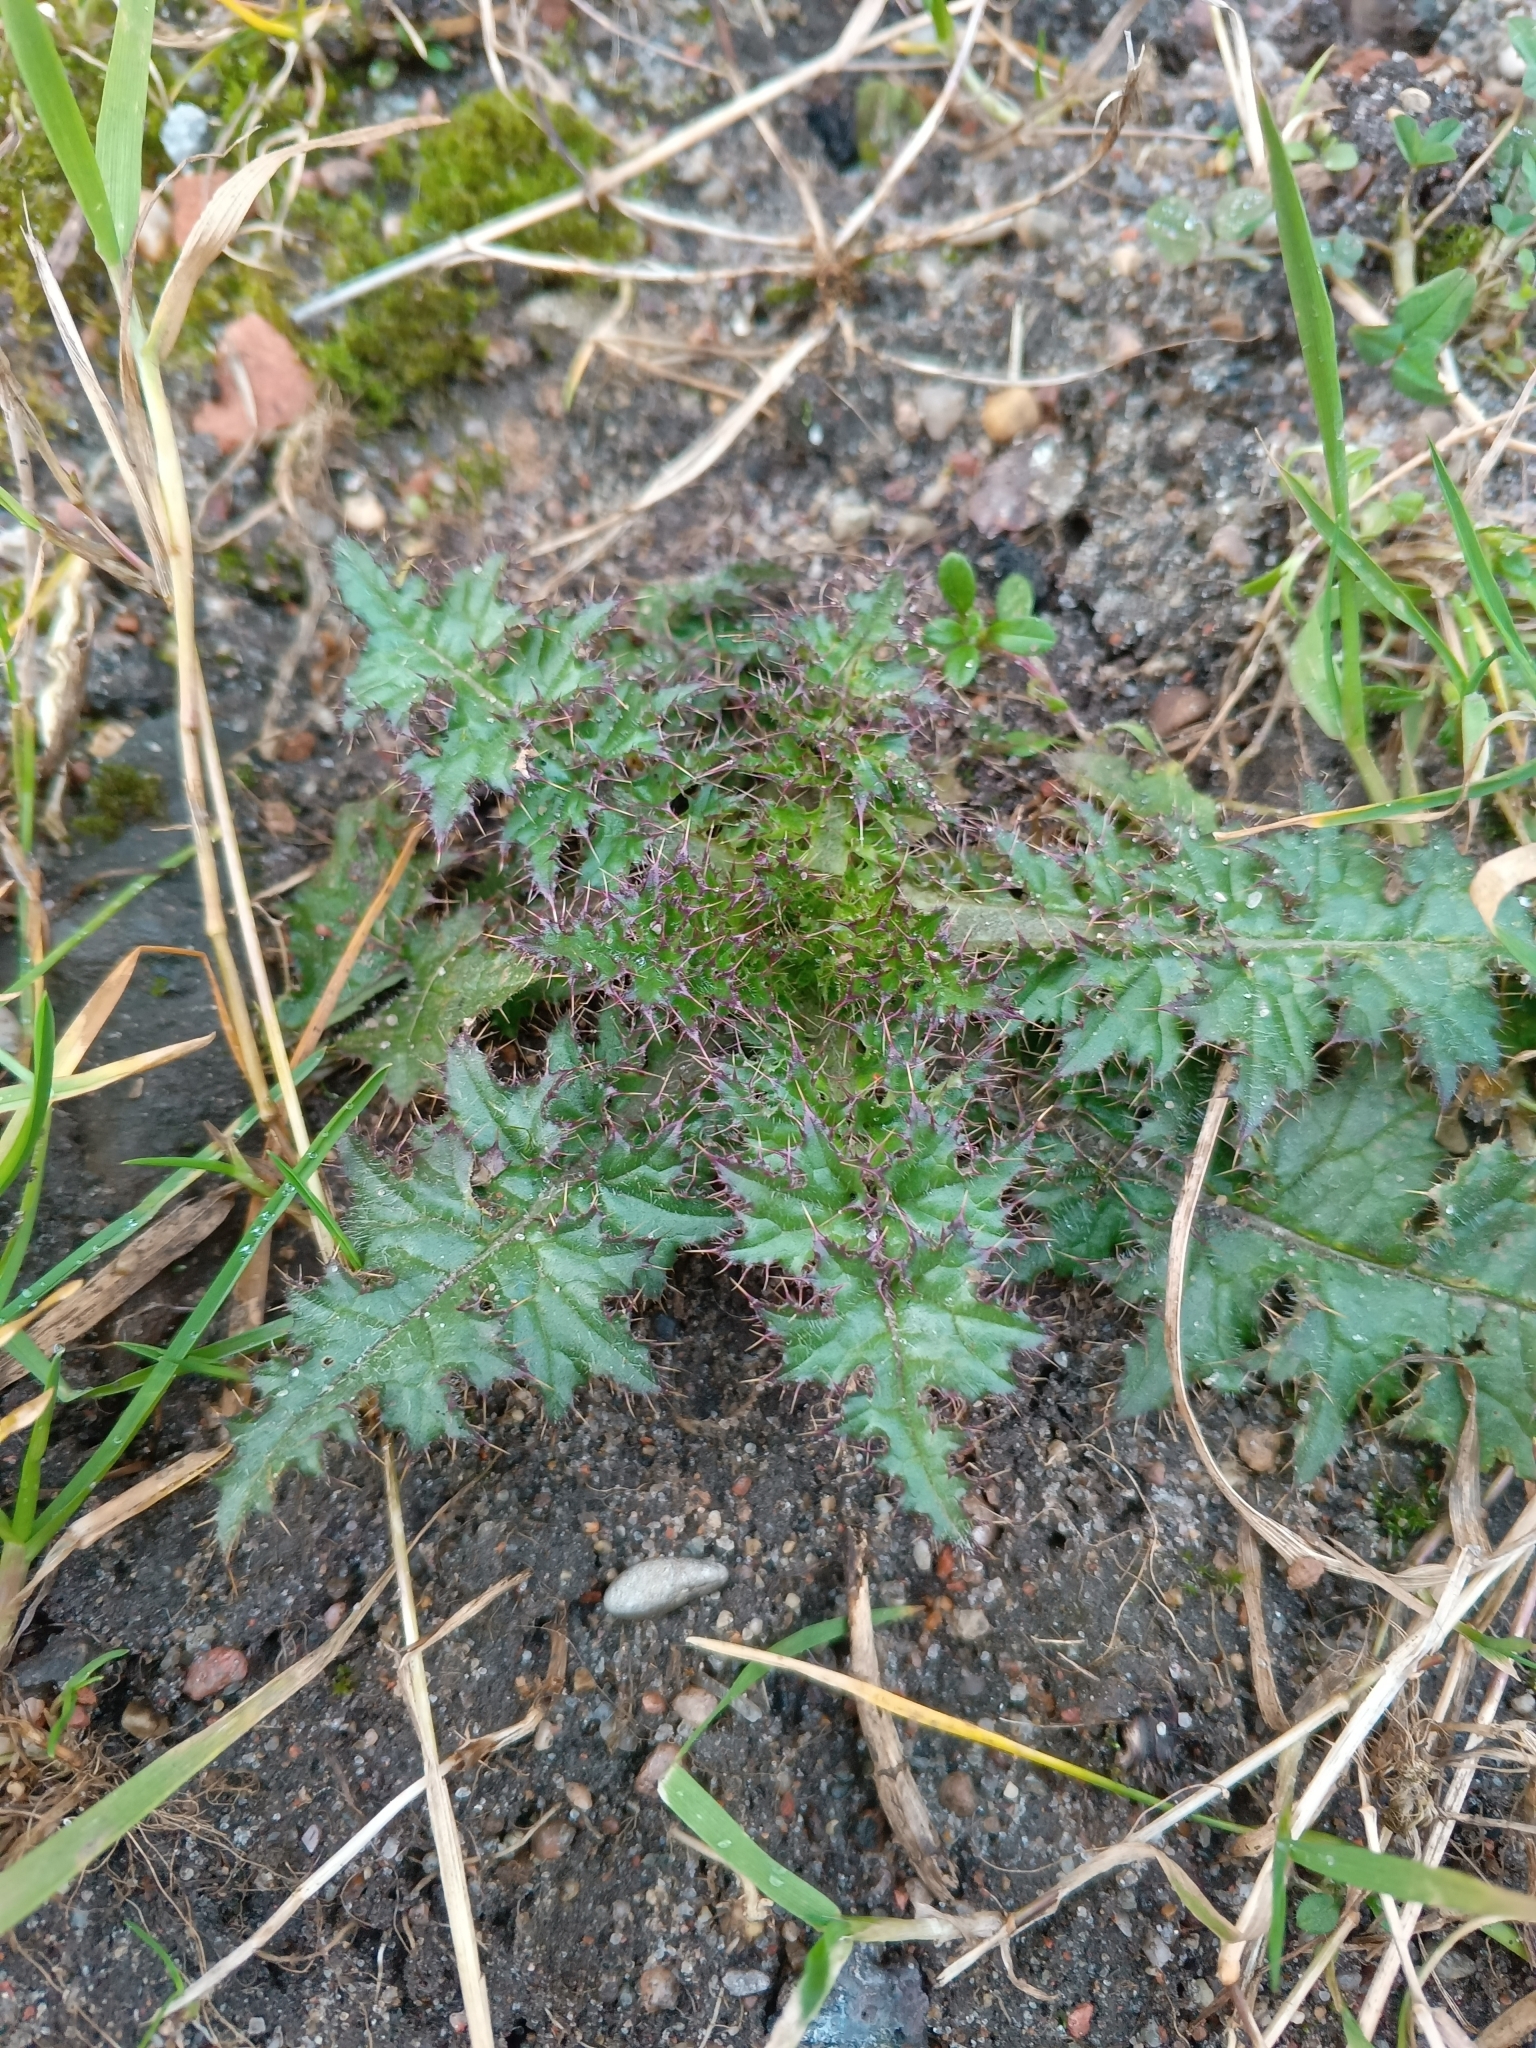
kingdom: Plantae
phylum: Tracheophyta
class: Magnoliopsida
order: Asterales
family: Asteraceae
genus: Carduus
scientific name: Carduus crispus
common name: Welted thistle
